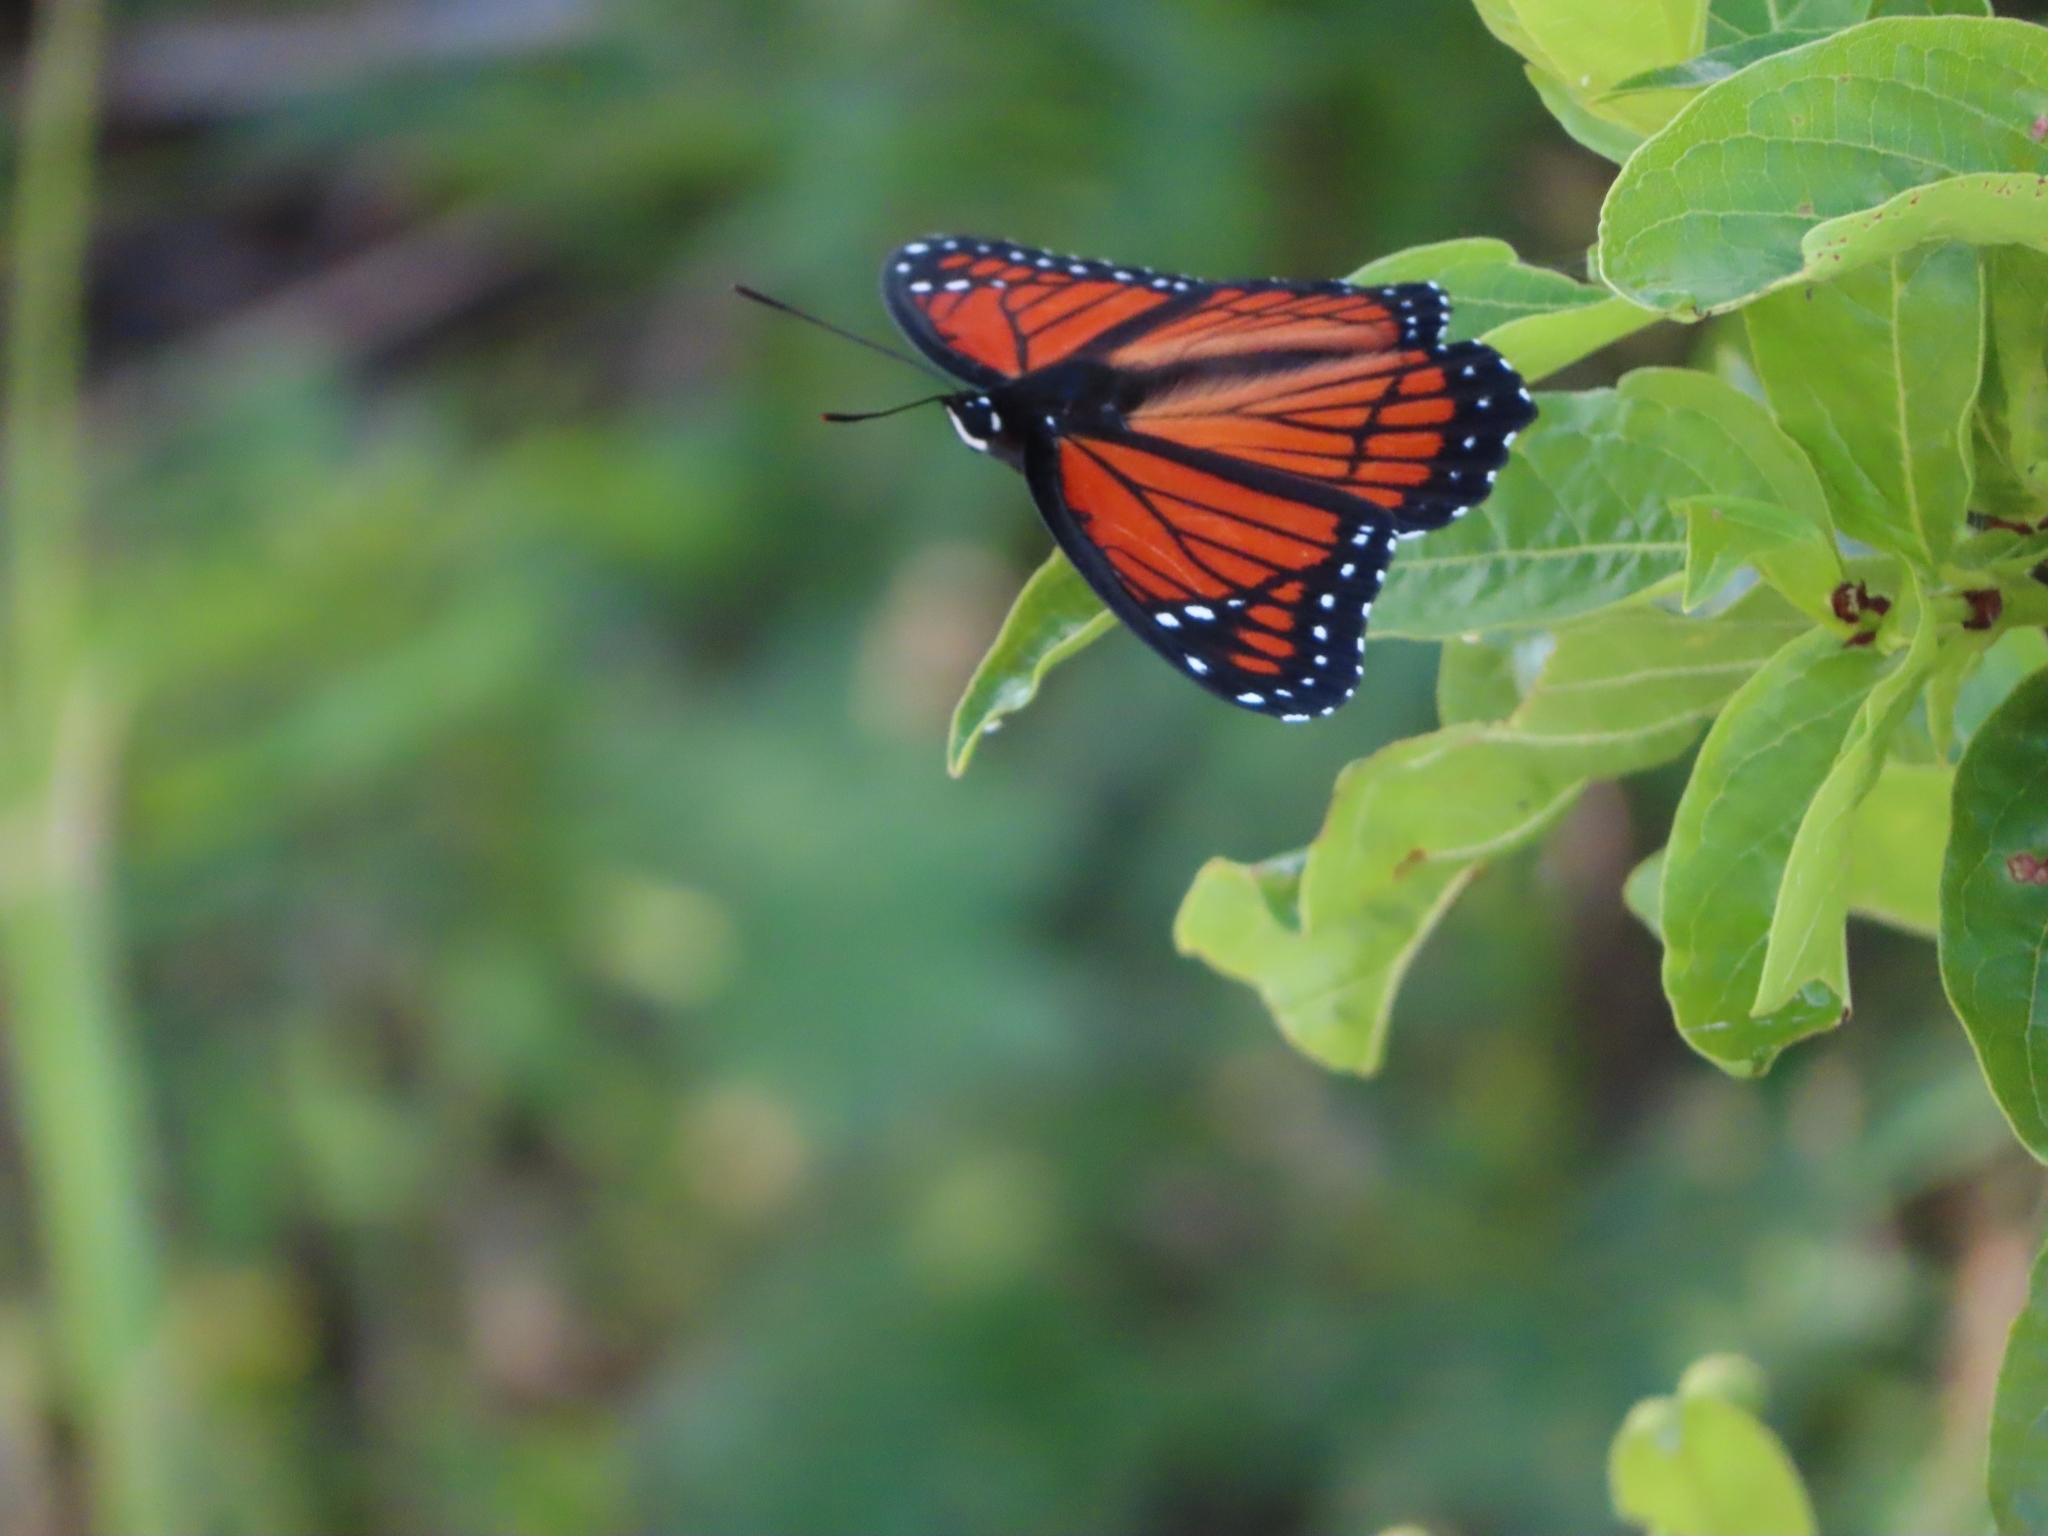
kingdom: Animalia
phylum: Arthropoda
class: Insecta
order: Lepidoptera
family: Nymphalidae
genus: Limenitis
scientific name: Limenitis archippus
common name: Viceroy
